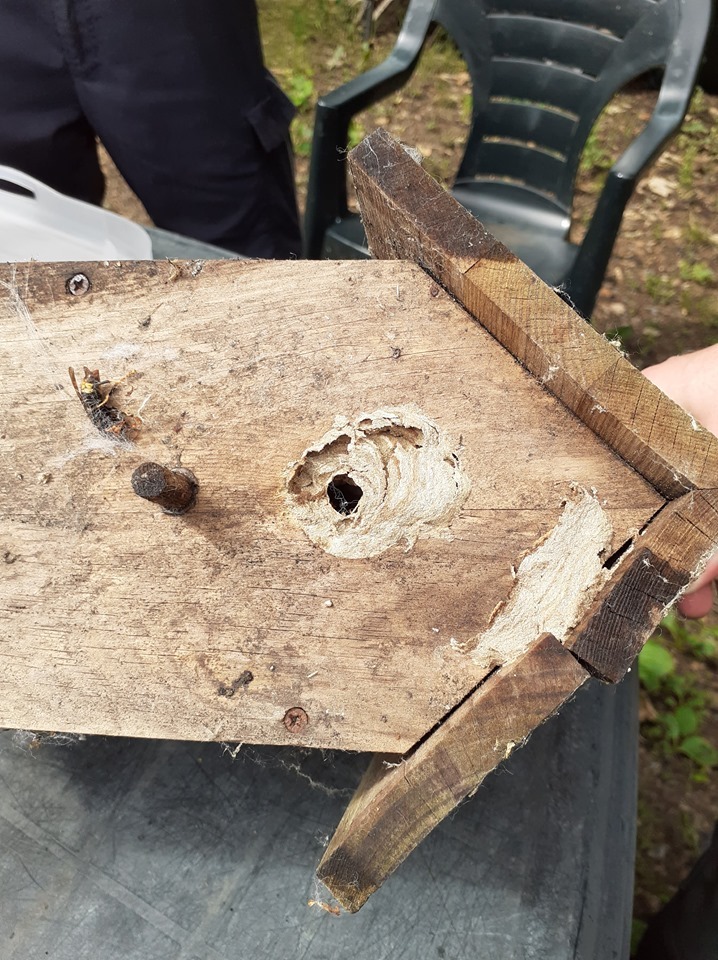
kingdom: Animalia
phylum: Arthropoda
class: Insecta
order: Hymenoptera
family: Vespidae
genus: Vespa
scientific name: Vespa velutina
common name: Asian hornet
